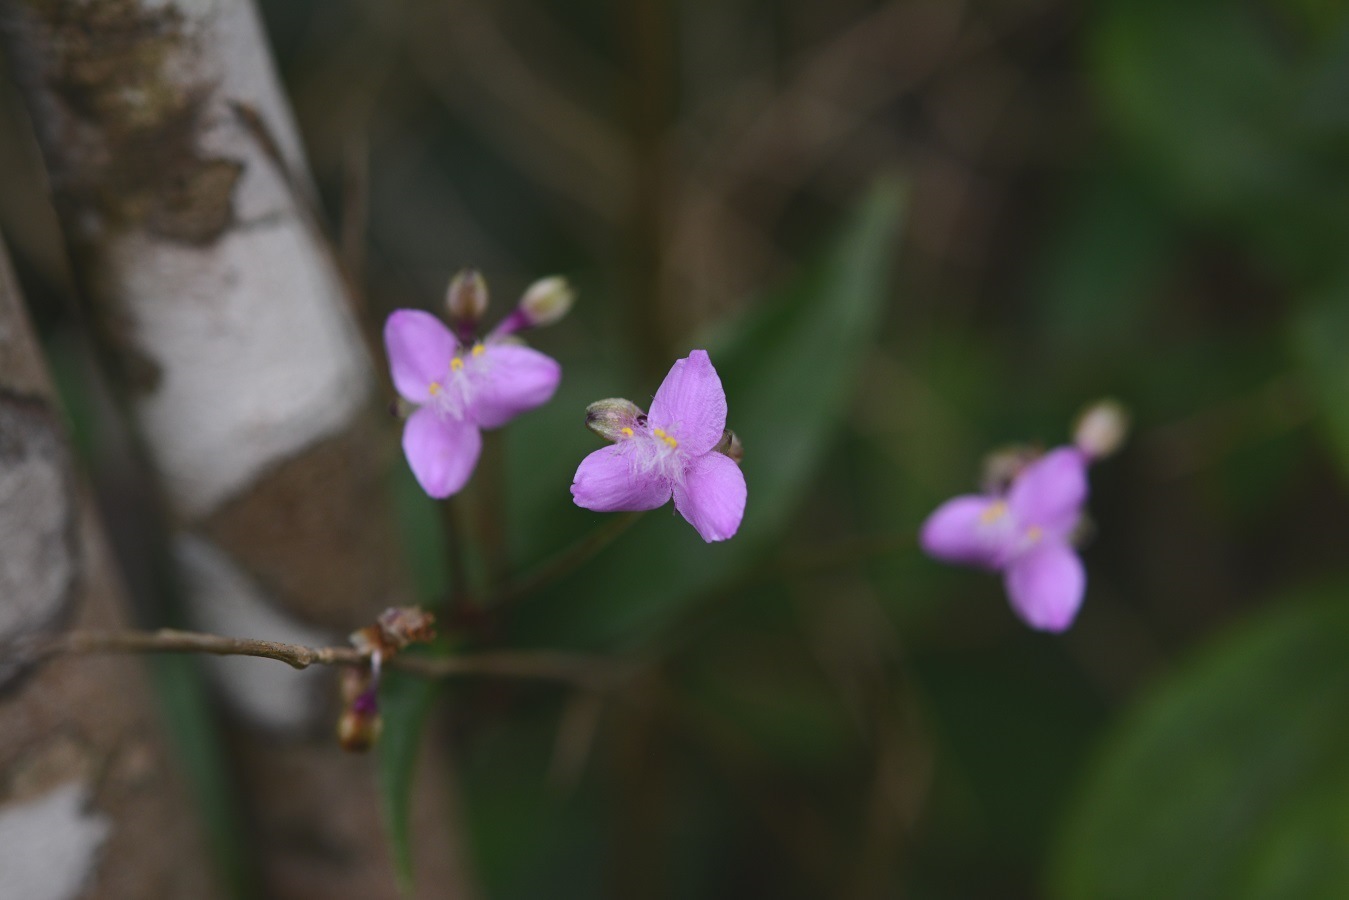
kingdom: Plantae
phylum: Tracheophyta
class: Liliopsida
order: Commelinales
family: Commelinaceae
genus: Callisia
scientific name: Callisia amplexicaulis
